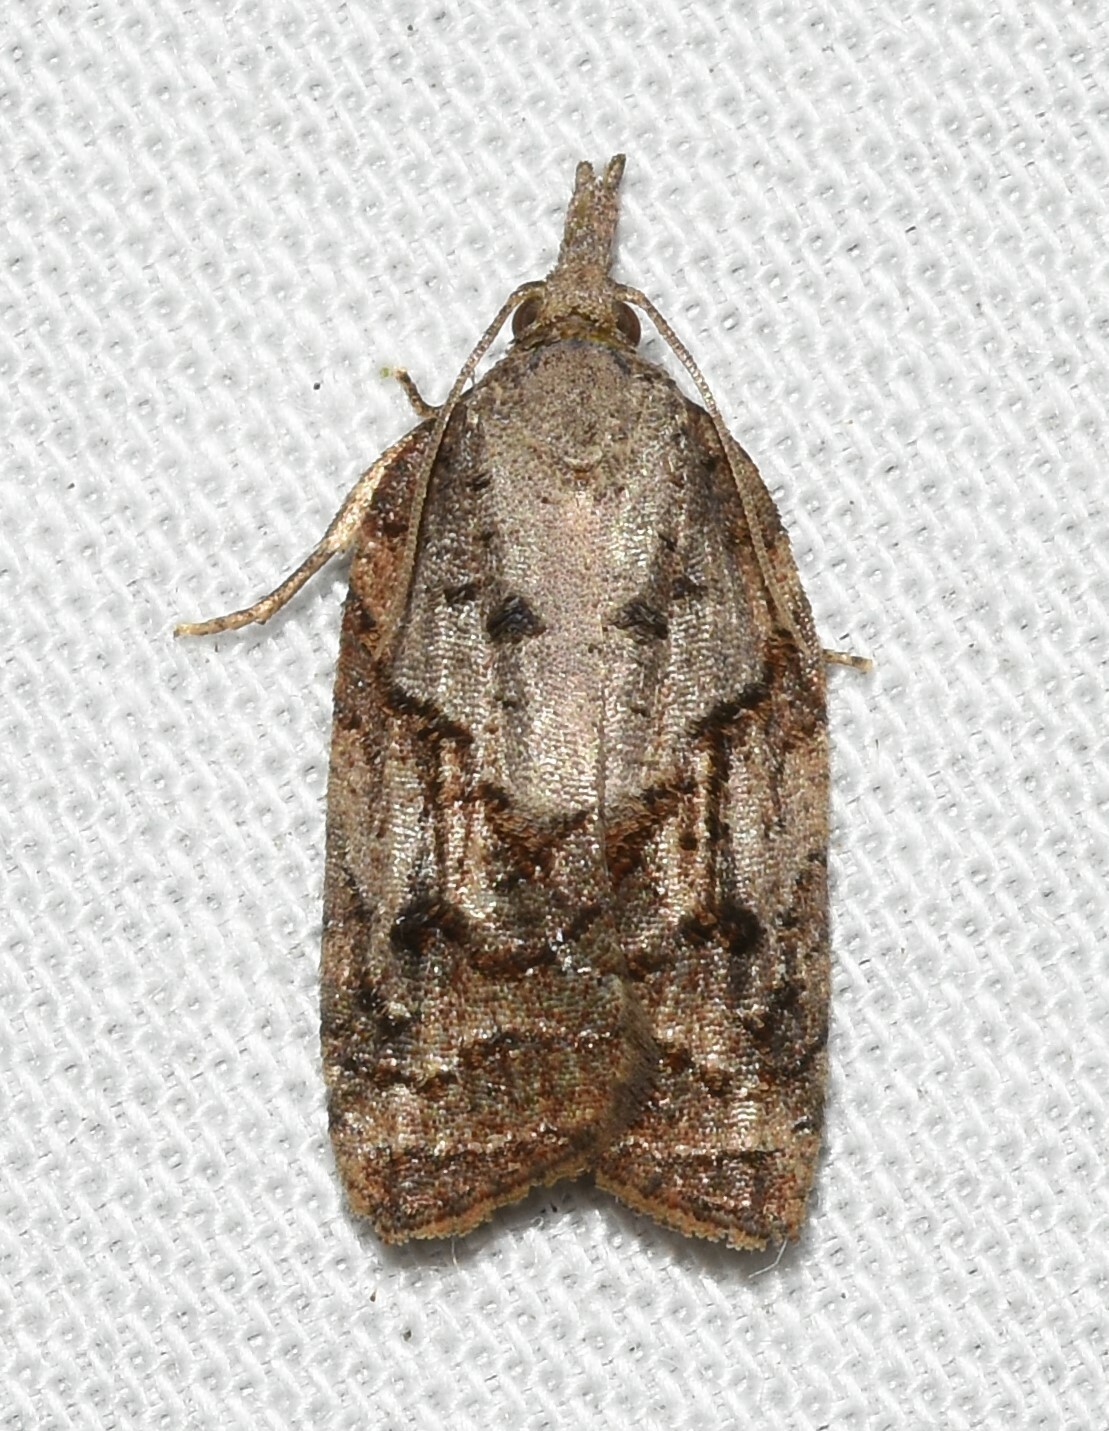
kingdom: Animalia
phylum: Arthropoda
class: Insecta
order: Lepidoptera
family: Tortricidae
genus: Platynota
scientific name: Platynota idaeusalis
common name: Tufted apple bud moth
